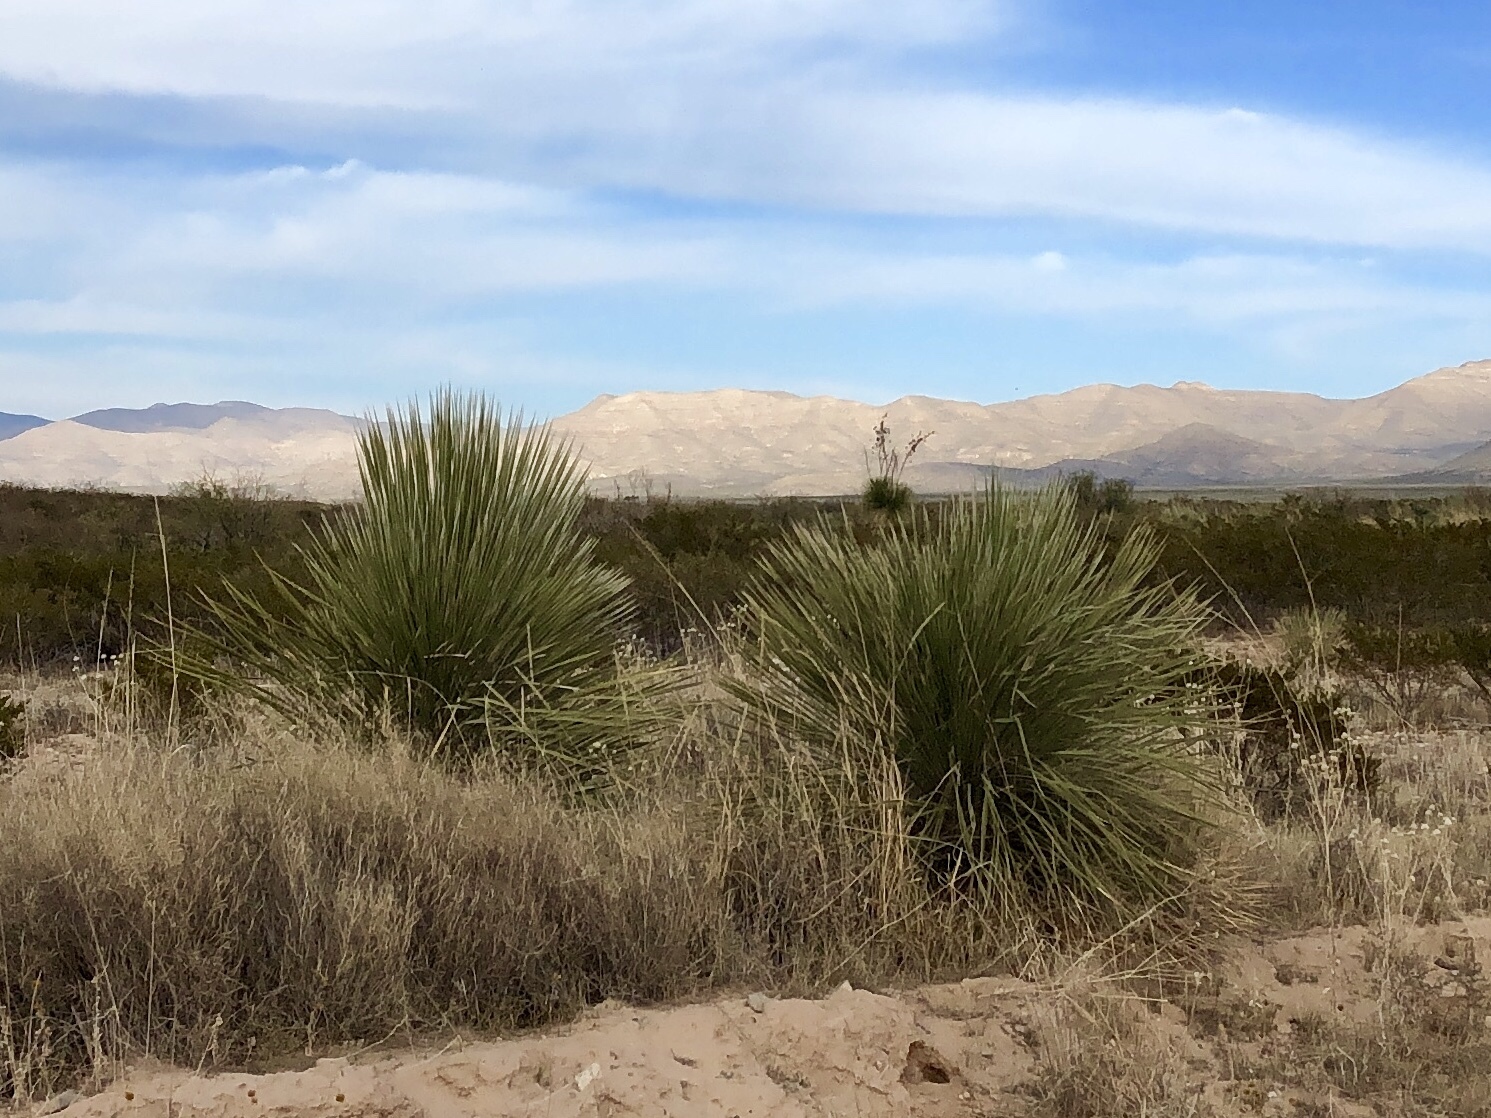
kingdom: Plantae
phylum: Tracheophyta
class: Liliopsida
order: Asparagales
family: Asparagaceae
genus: Yucca
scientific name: Yucca elata
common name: Palmella
